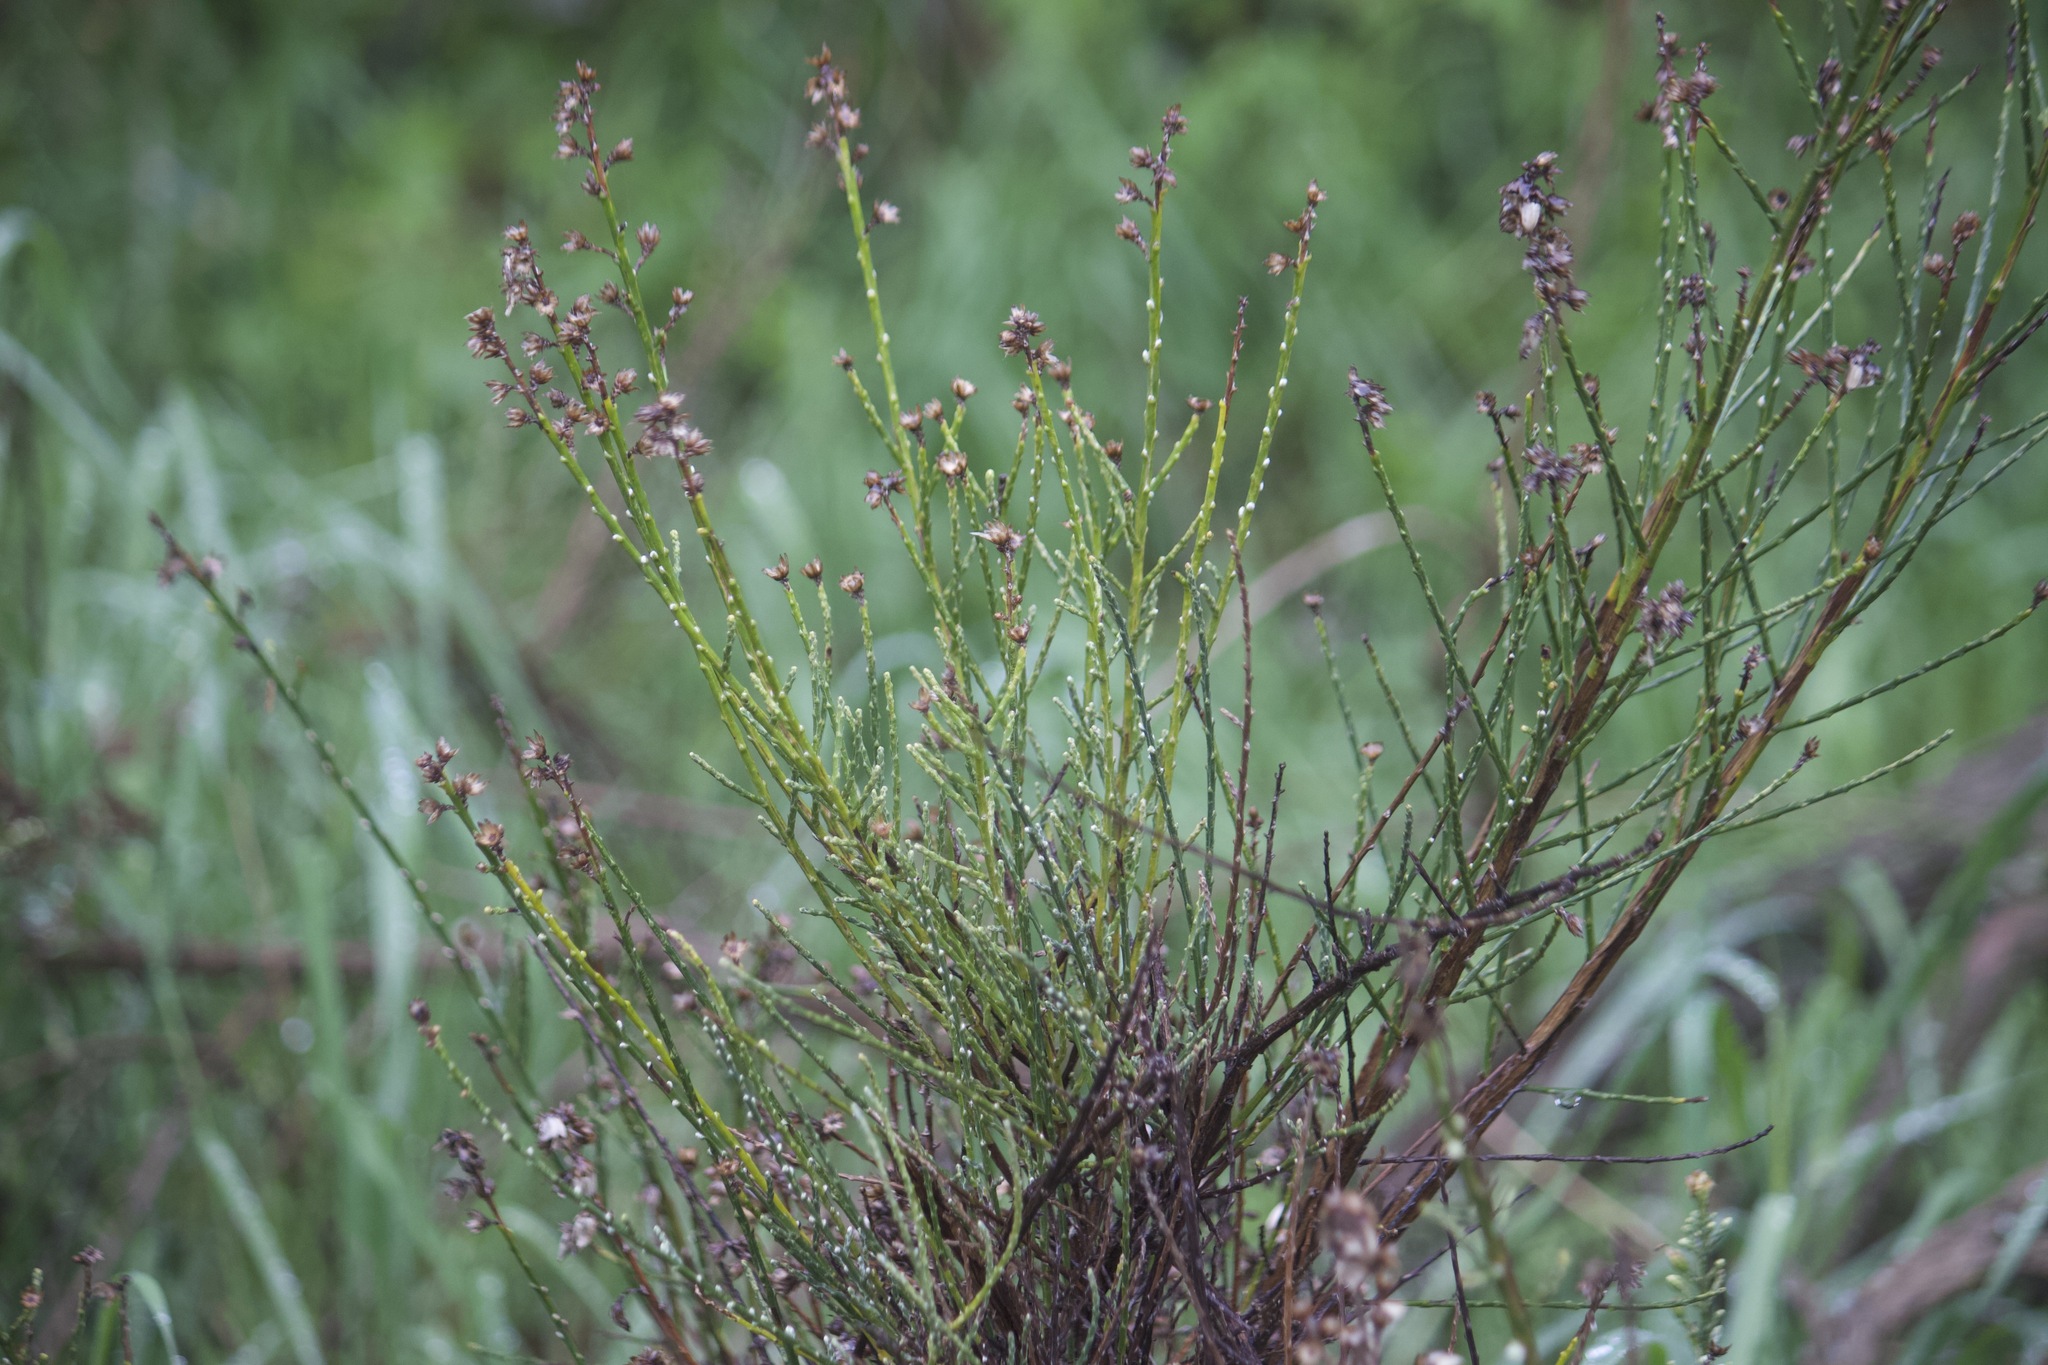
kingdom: Plantae
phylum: Tracheophyta
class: Magnoliopsida
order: Asterales
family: Asteraceae
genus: Lepidospartum
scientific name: Lepidospartum squamatum
